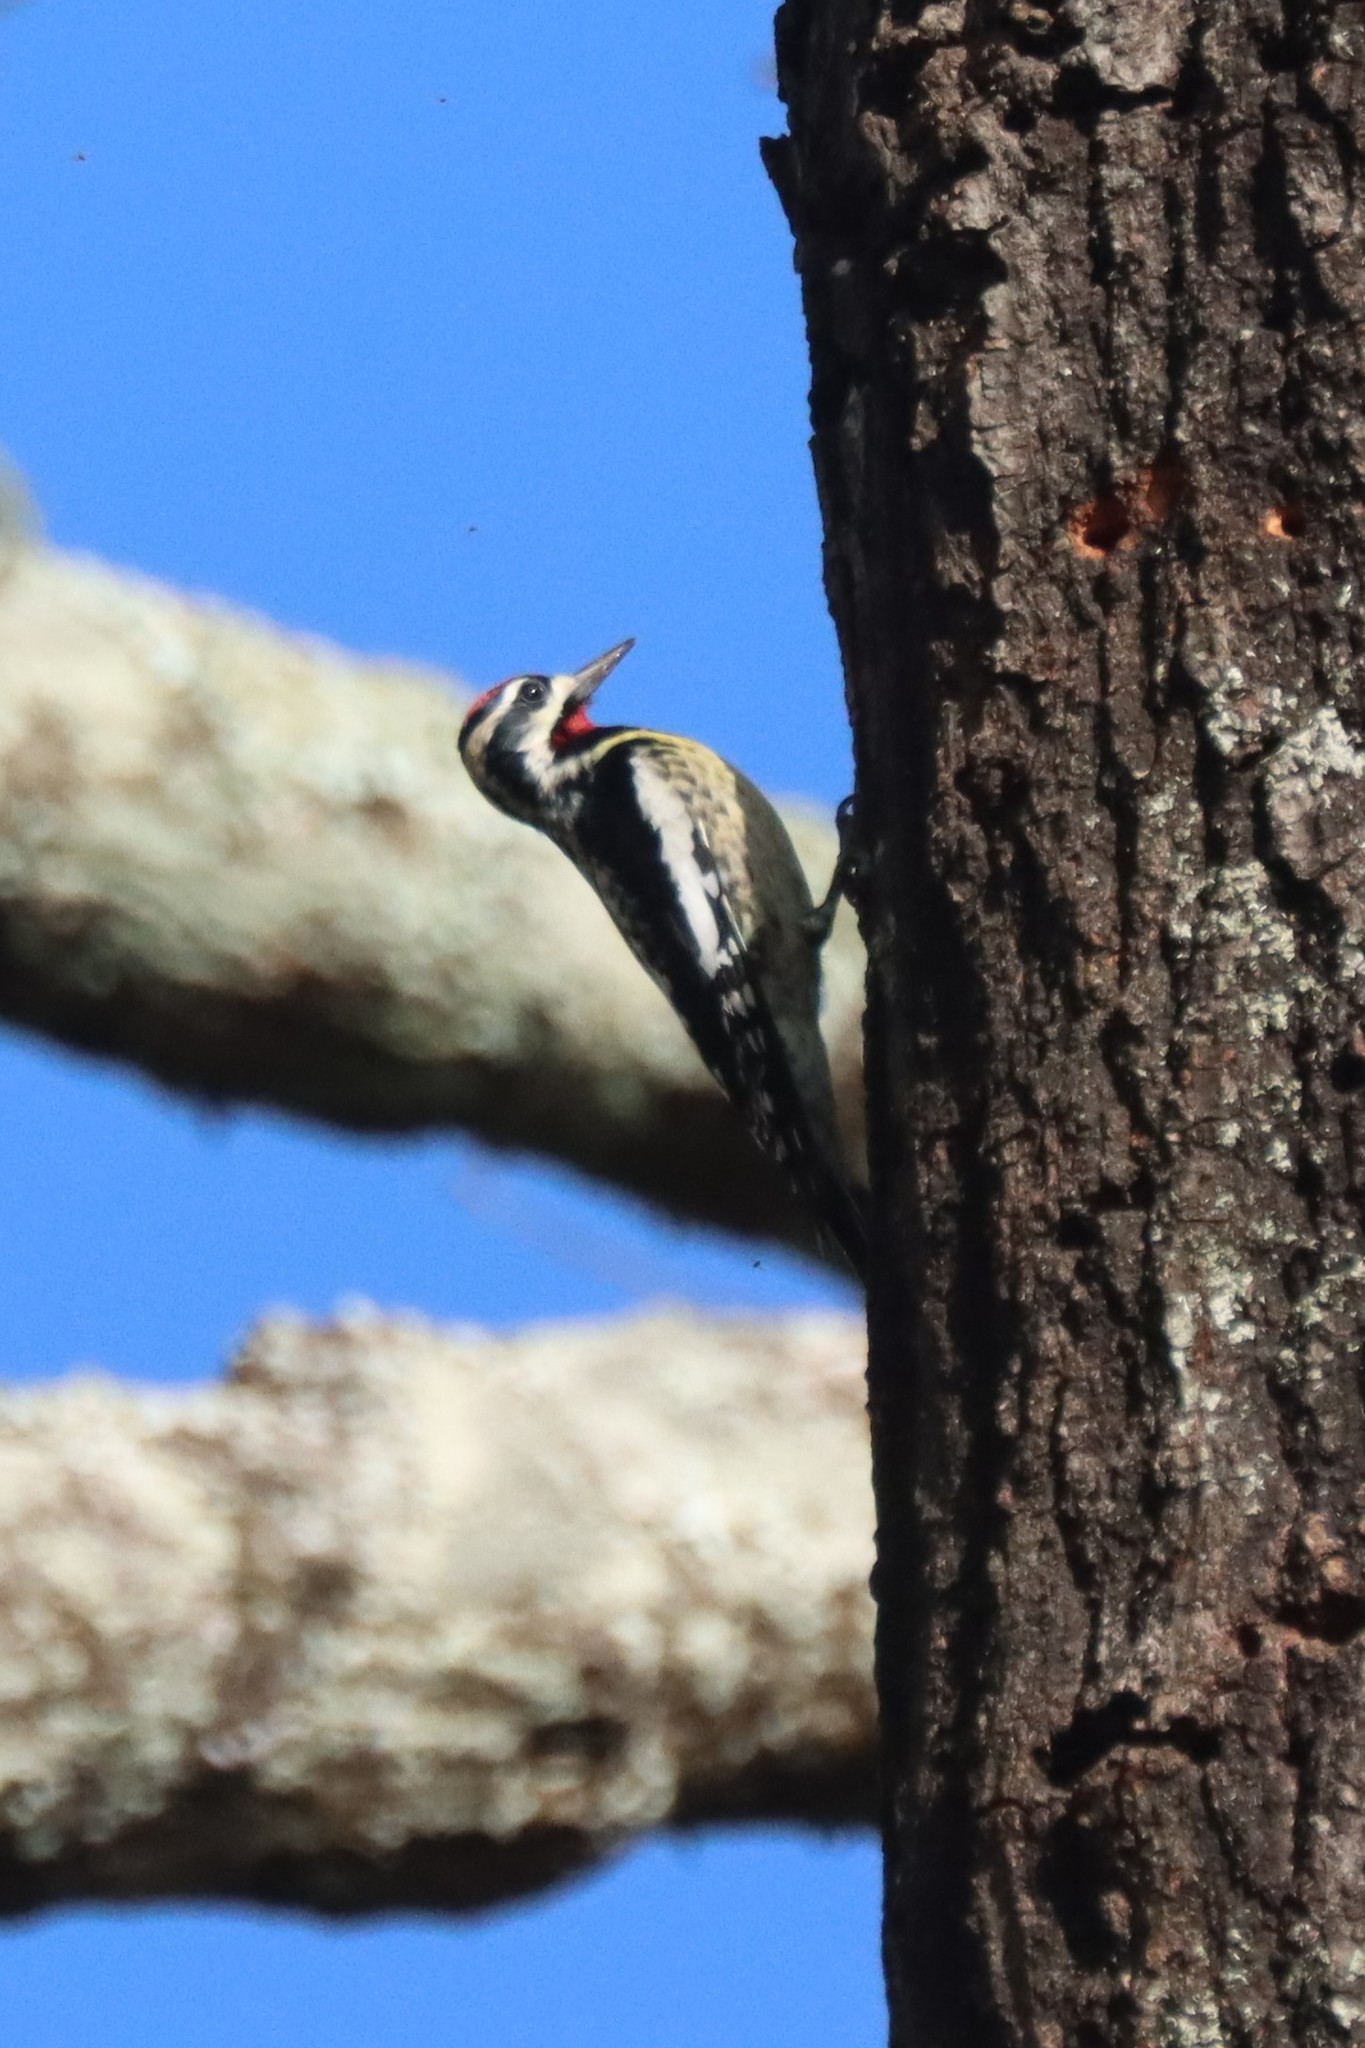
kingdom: Animalia
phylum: Chordata
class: Aves
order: Piciformes
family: Picidae
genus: Sphyrapicus
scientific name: Sphyrapicus varius
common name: Yellow-bellied sapsucker
